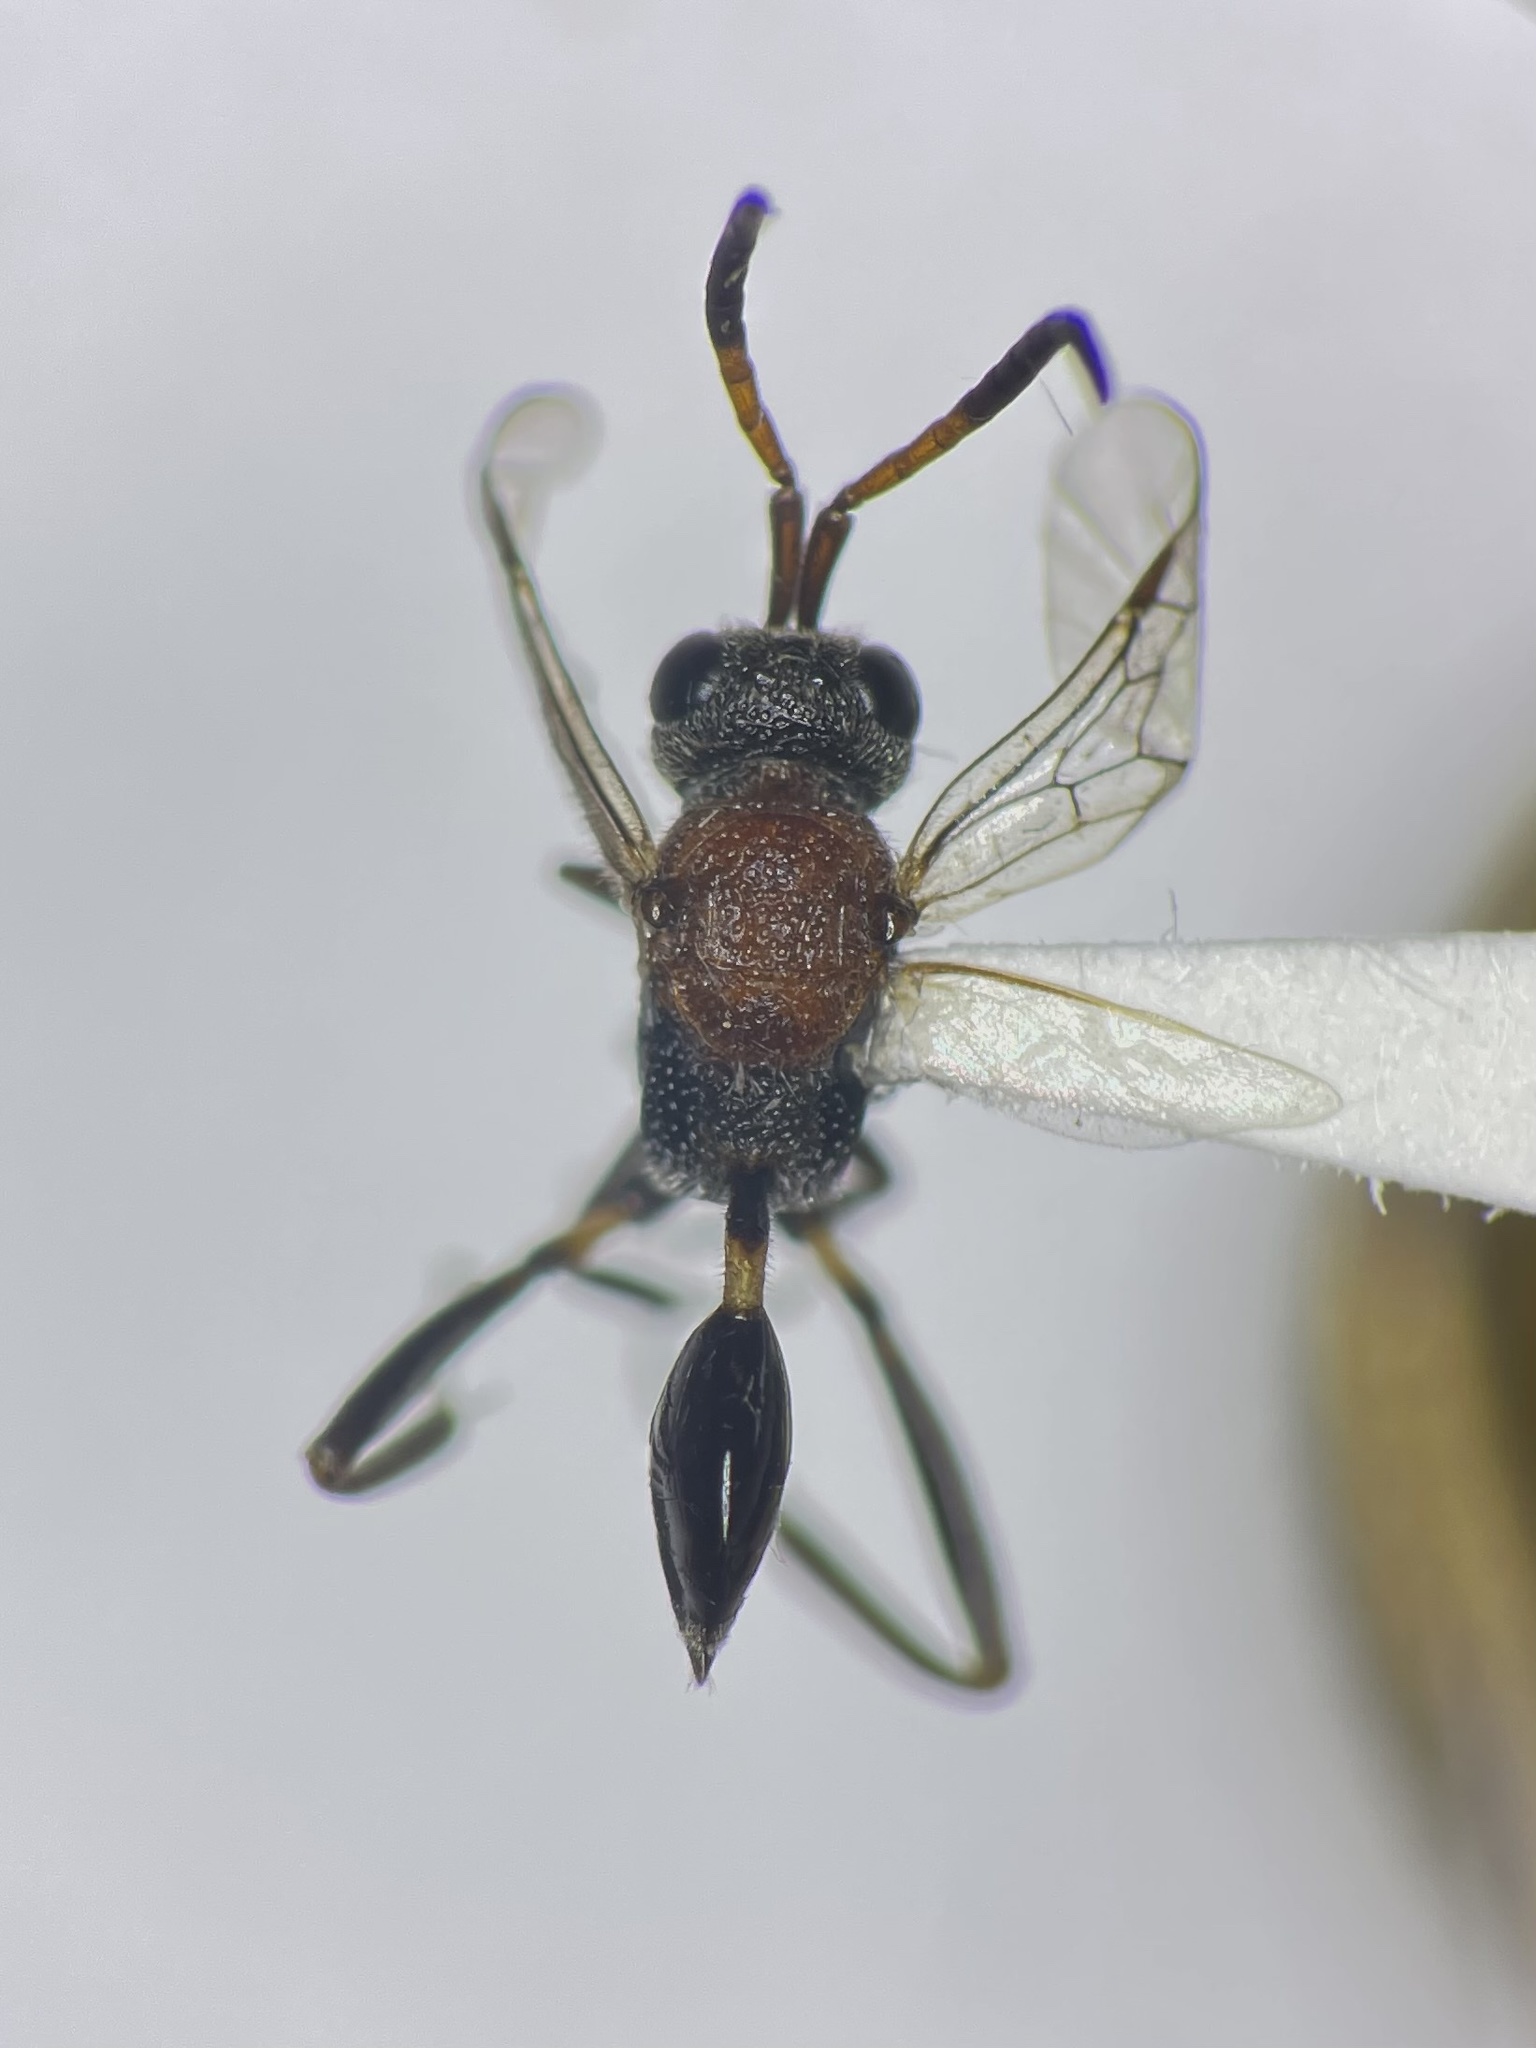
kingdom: Animalia
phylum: Arthropoda
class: Insecta
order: Hymenoptera
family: Evaniidae
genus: Evaniella
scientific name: Evaniella semaeoda
